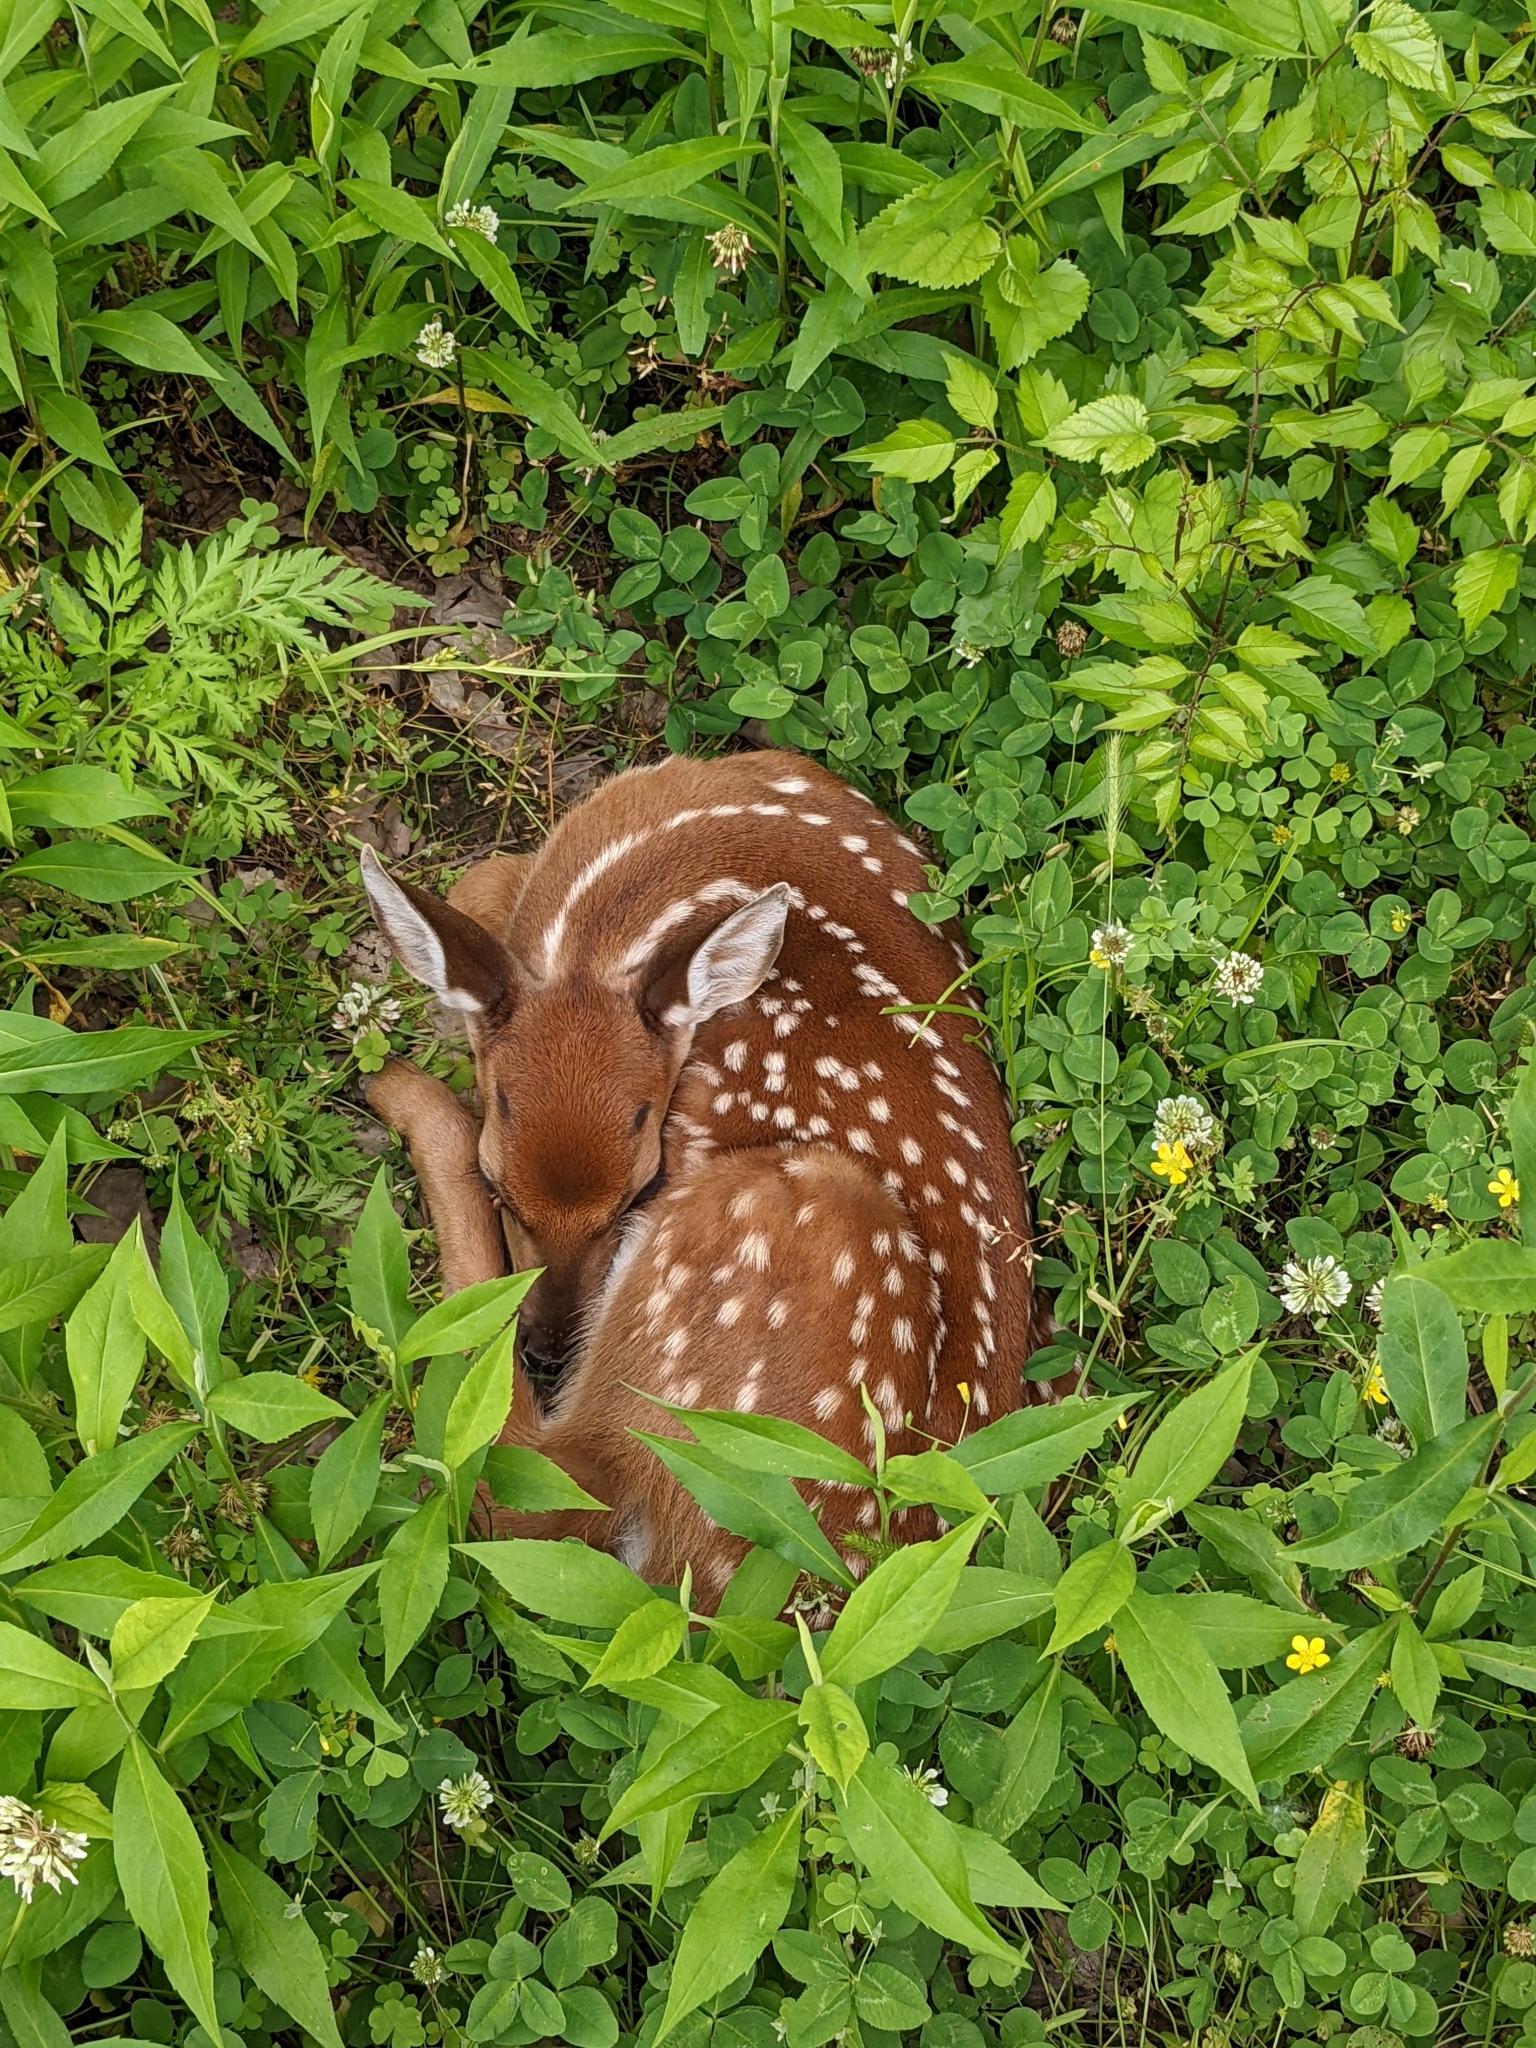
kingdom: Animalia
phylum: Chordata
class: Mammalia
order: Artiodactyla
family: Cervidae
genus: Odocoileus
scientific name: Odocoileus virginianus
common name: White-tailed deer
